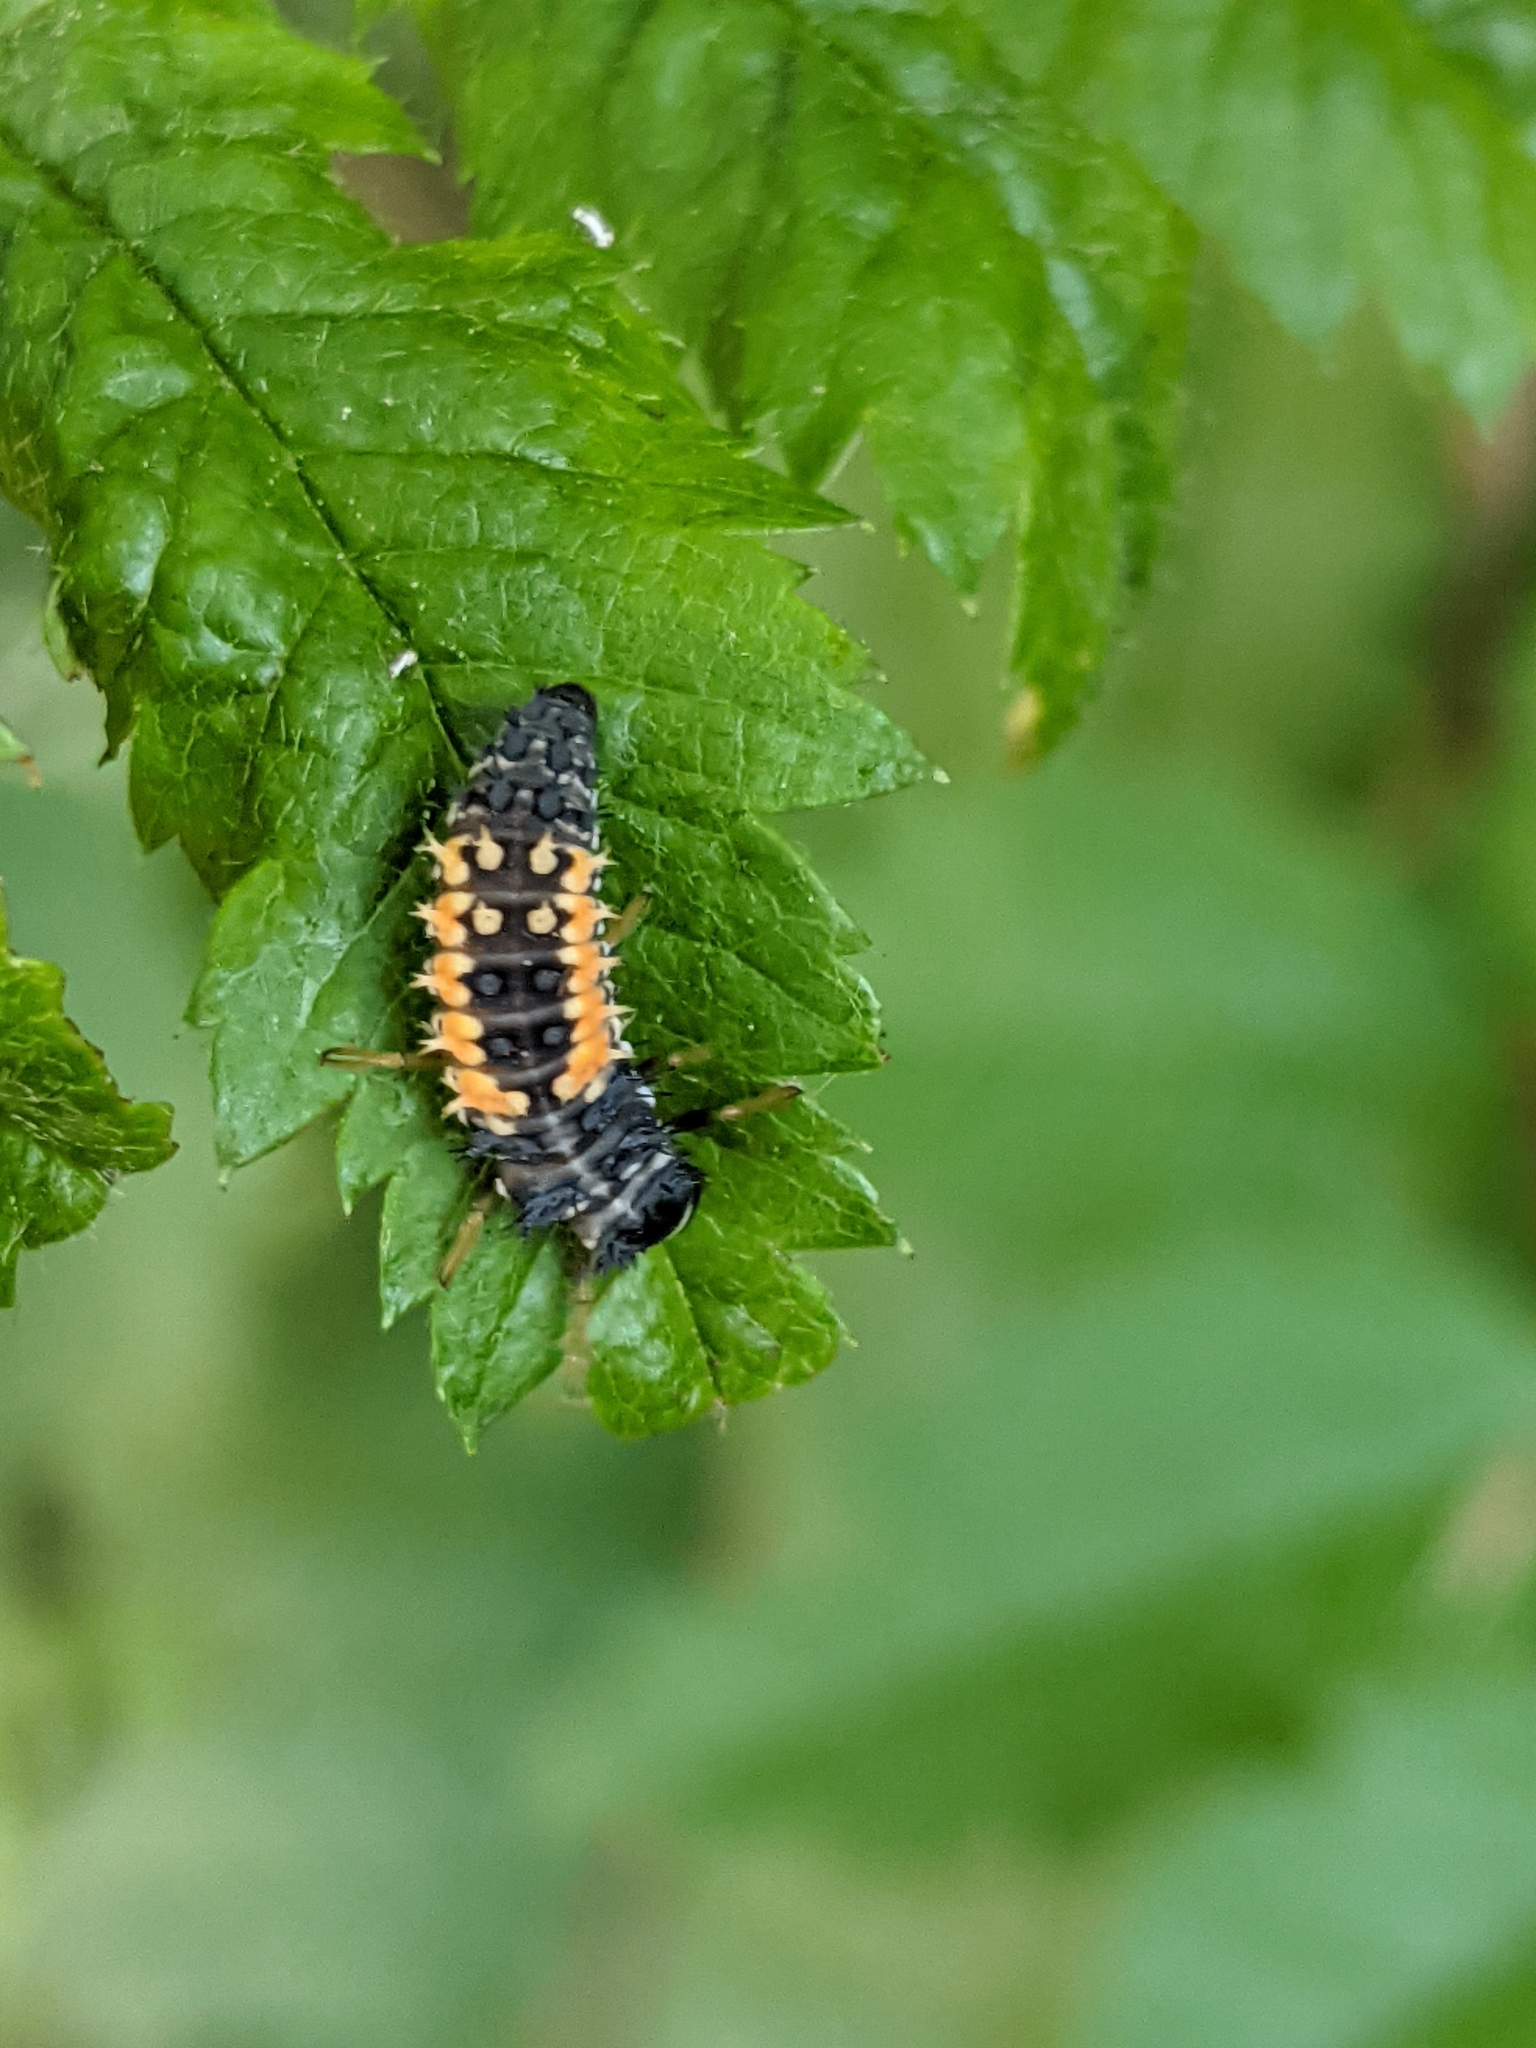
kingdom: Animalia
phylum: Arthropoda
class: Insecta
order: Coleoptera
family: Coccinellidae
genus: Harmonia
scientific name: Harmonia axyridis
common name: Harlequin ladybird
